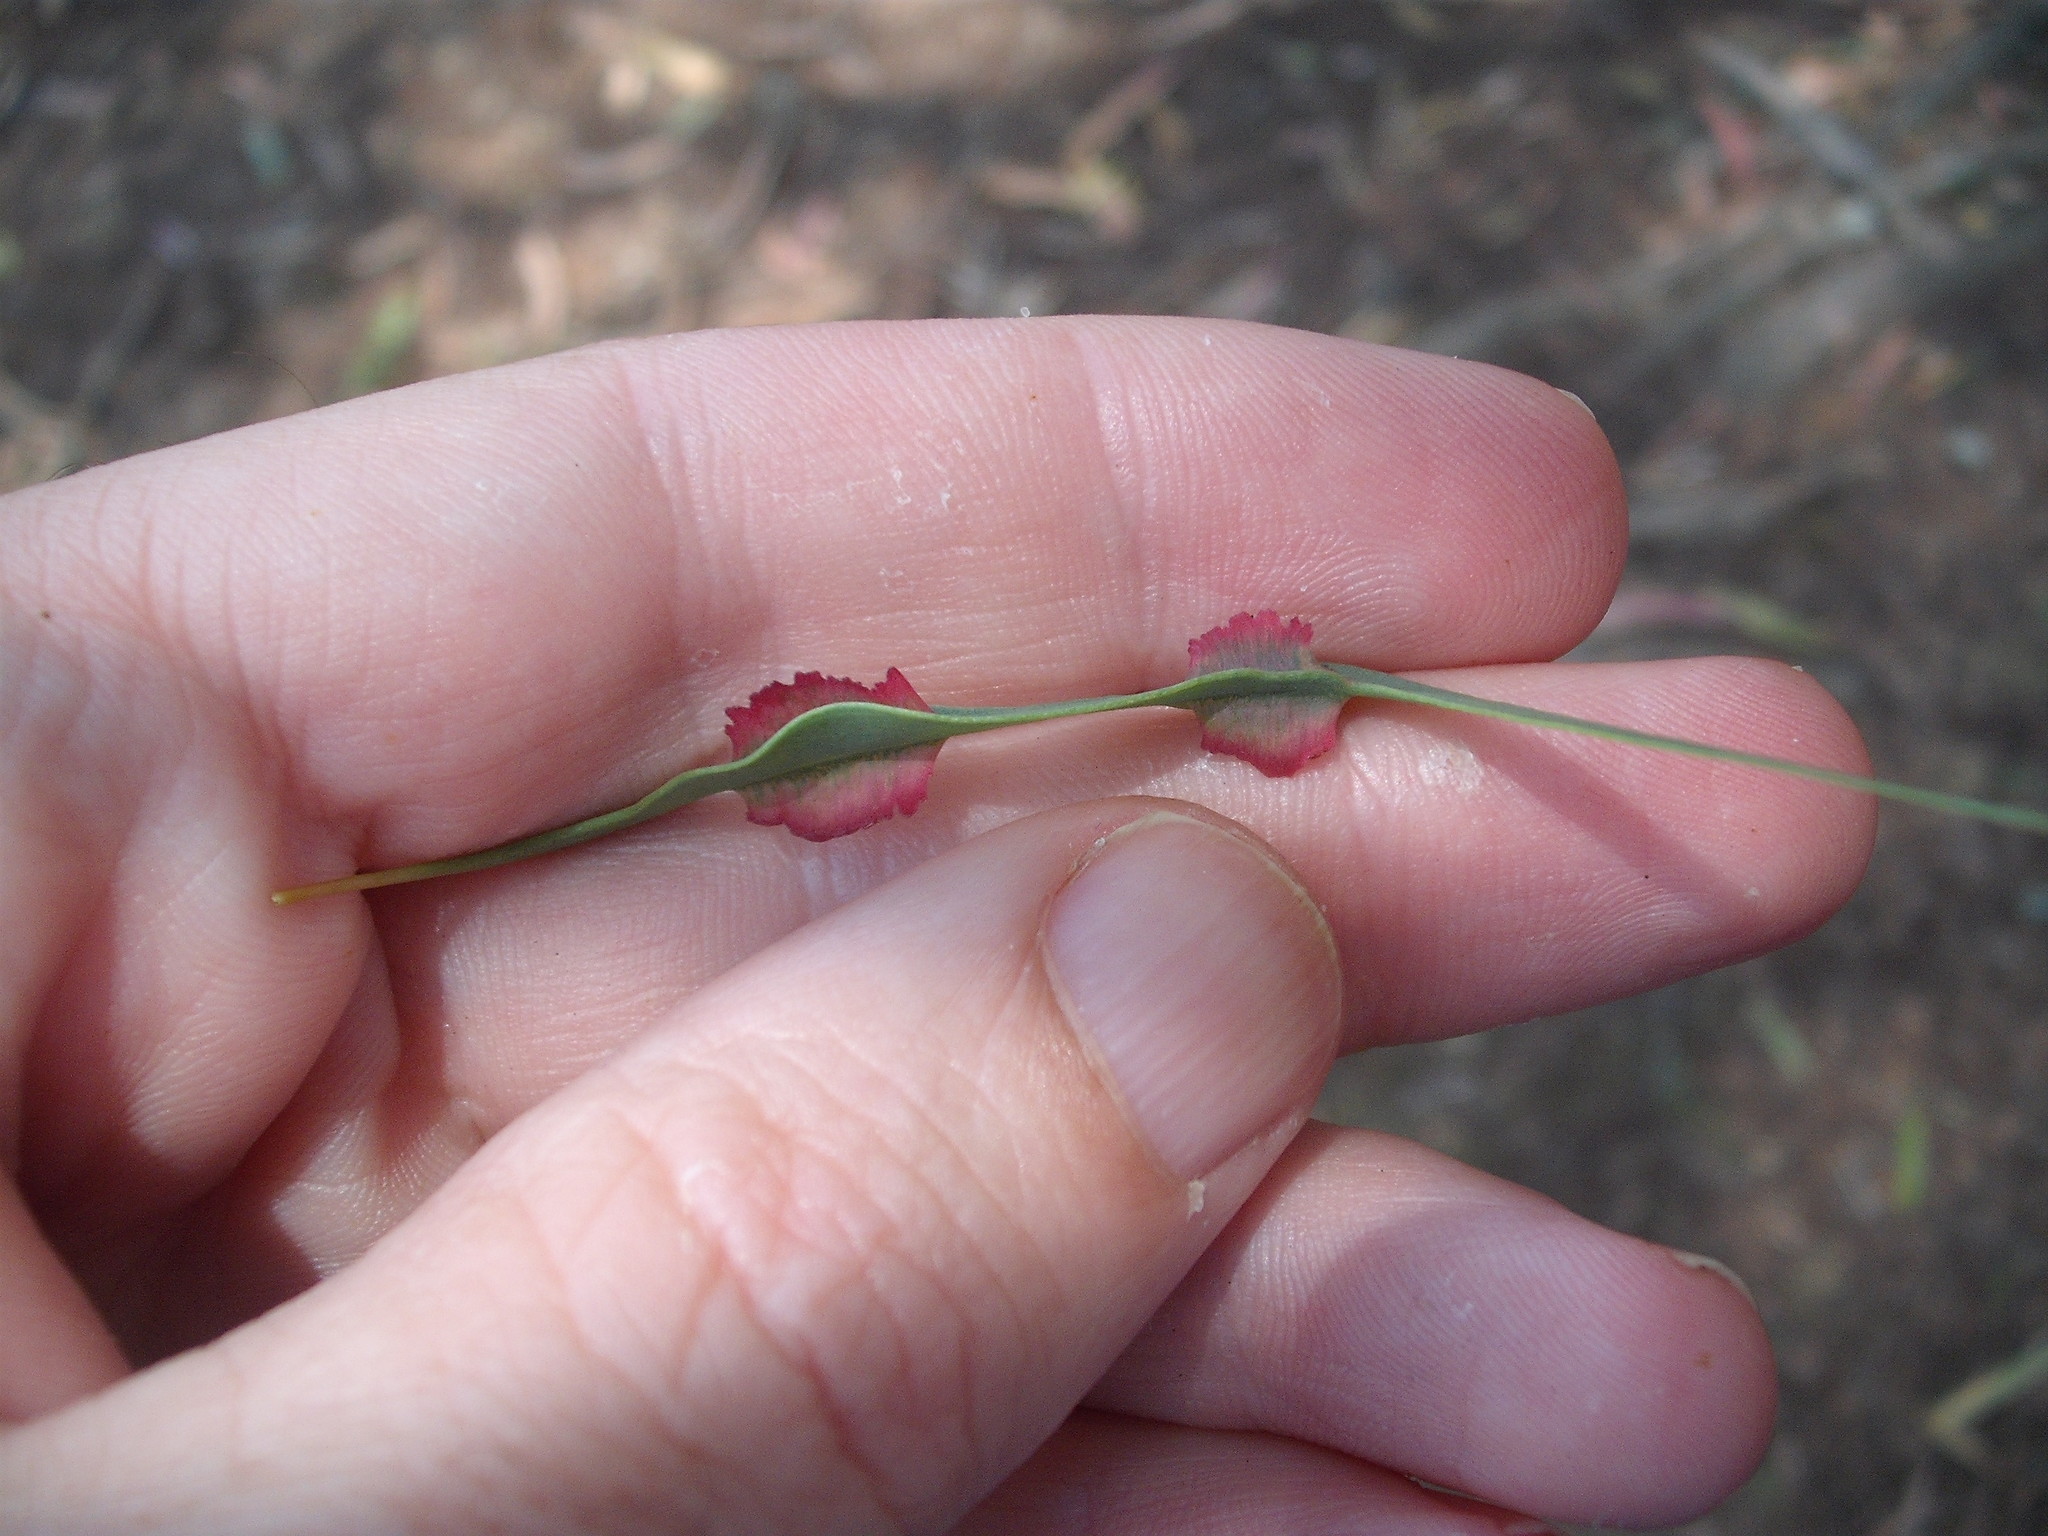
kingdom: Animalia
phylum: Arthropoda
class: Insecta
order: Hymenoptera
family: Pteromalidae
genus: Nambouria
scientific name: Nambouria xanthops
